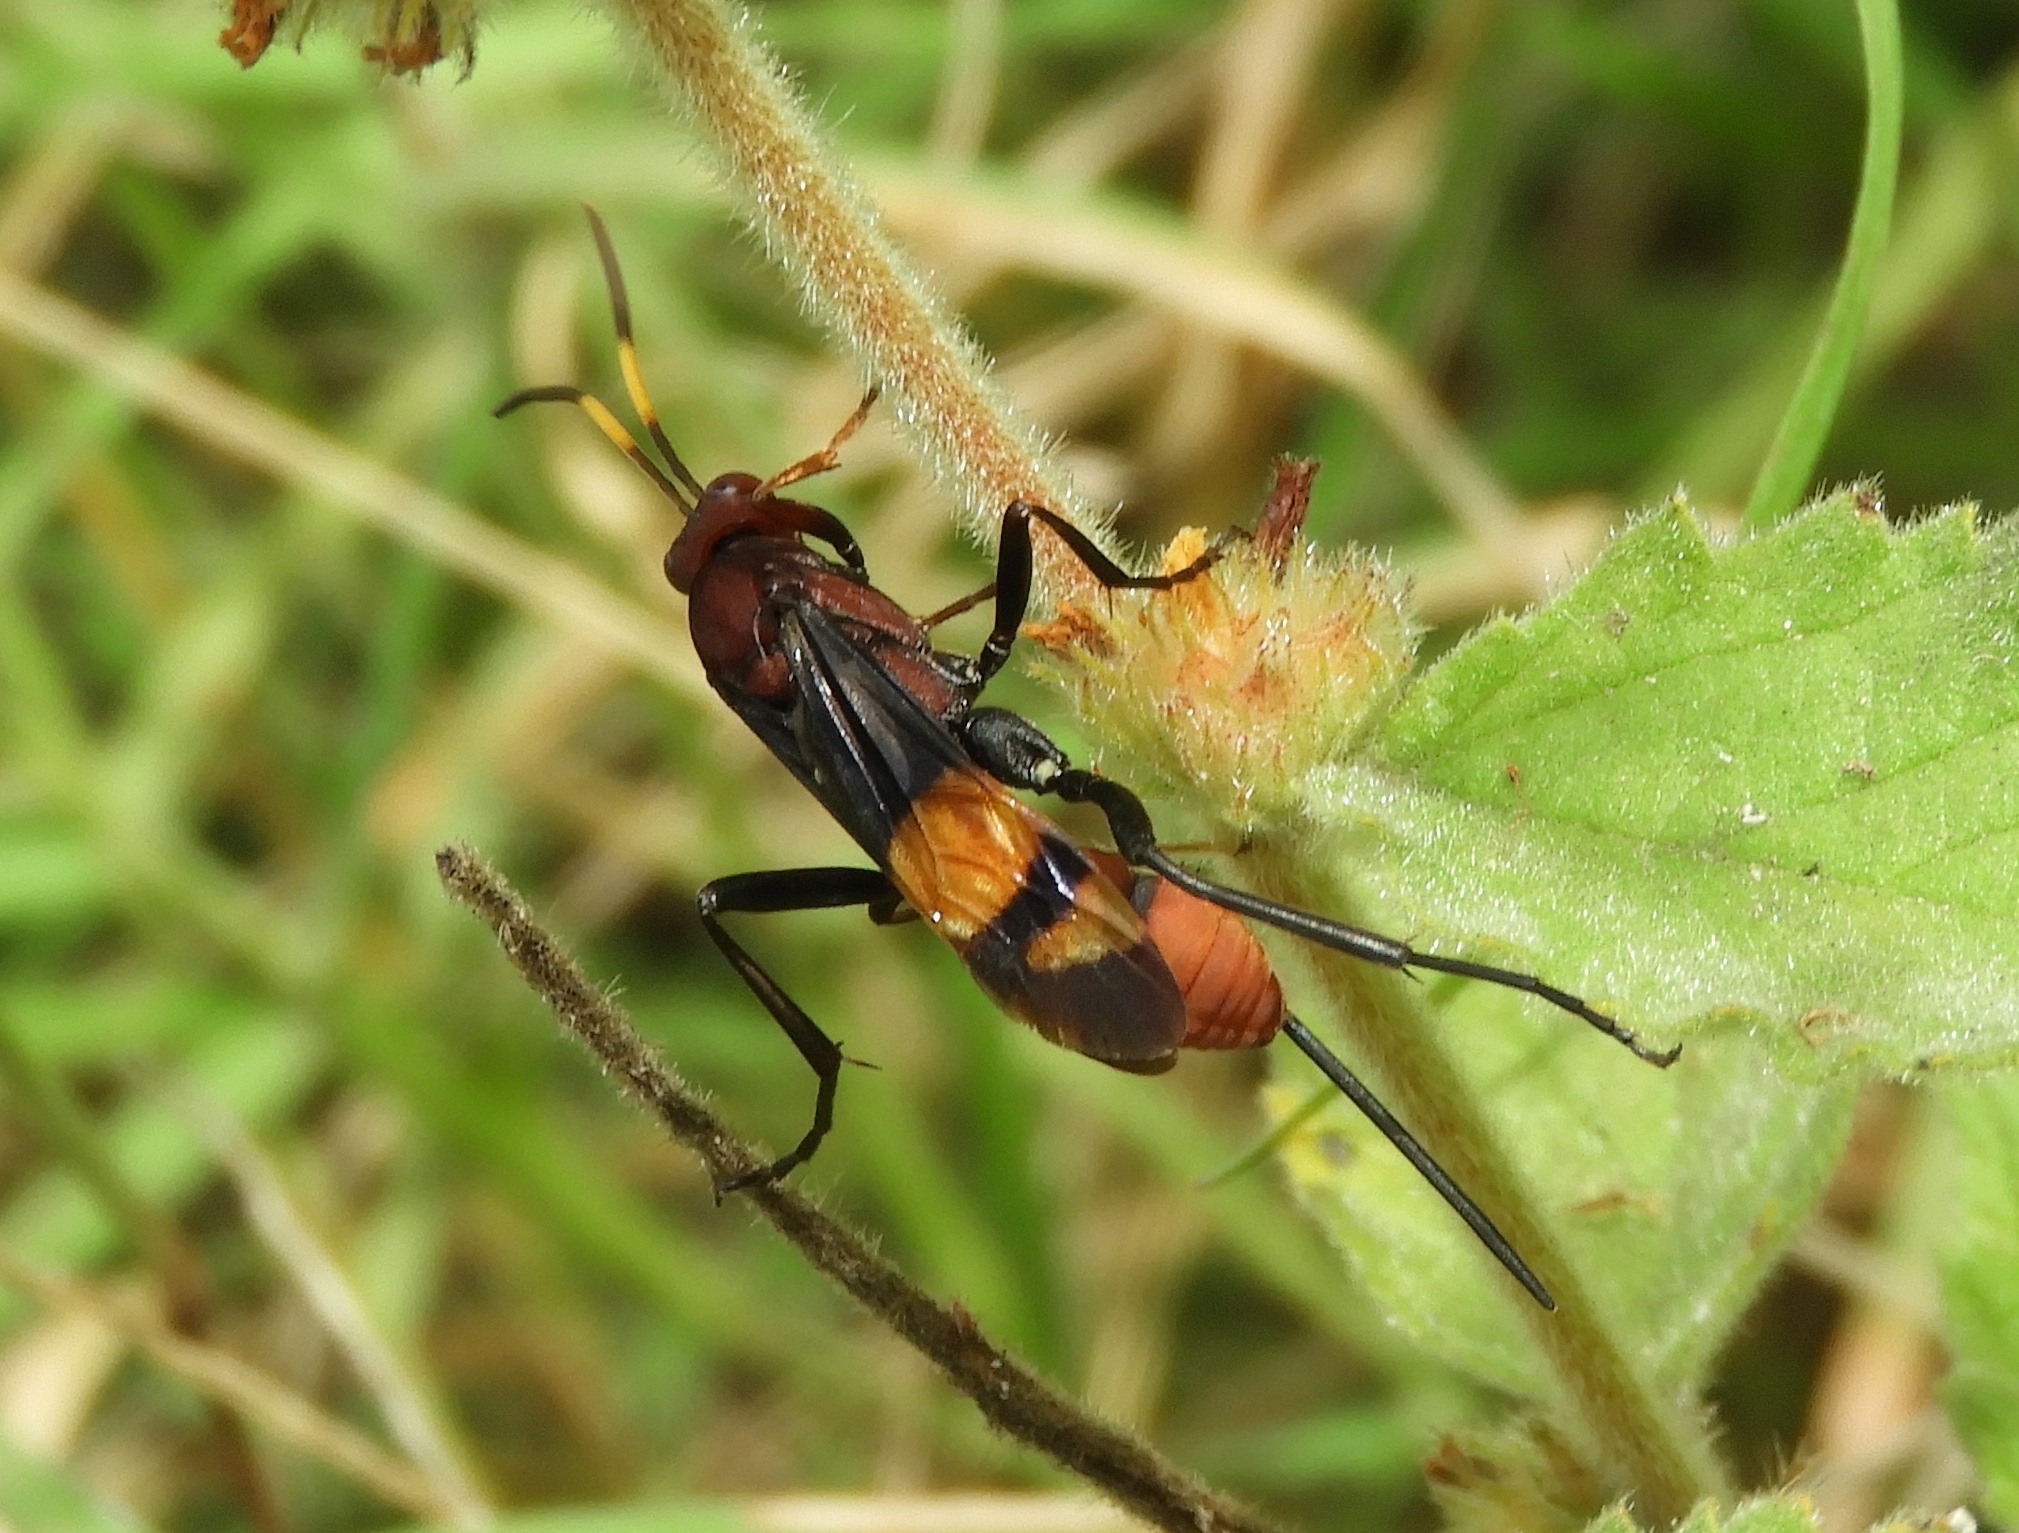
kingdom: Animalia
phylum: Arthropoda
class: Insecta
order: Hymenoptera
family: Ichneumonidae
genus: Compsocryptus
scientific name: Compsocryptus xanthostigma
